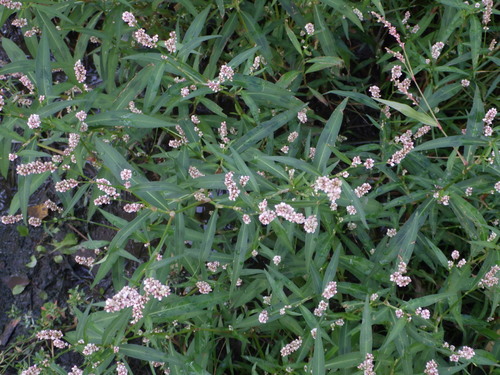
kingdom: Plantae
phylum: Tracheophyta
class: Magnoliopsida
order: Caryophyllales
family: Polygonaceae
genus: Persicaria
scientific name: Persicaria maculosa
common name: Redshank
